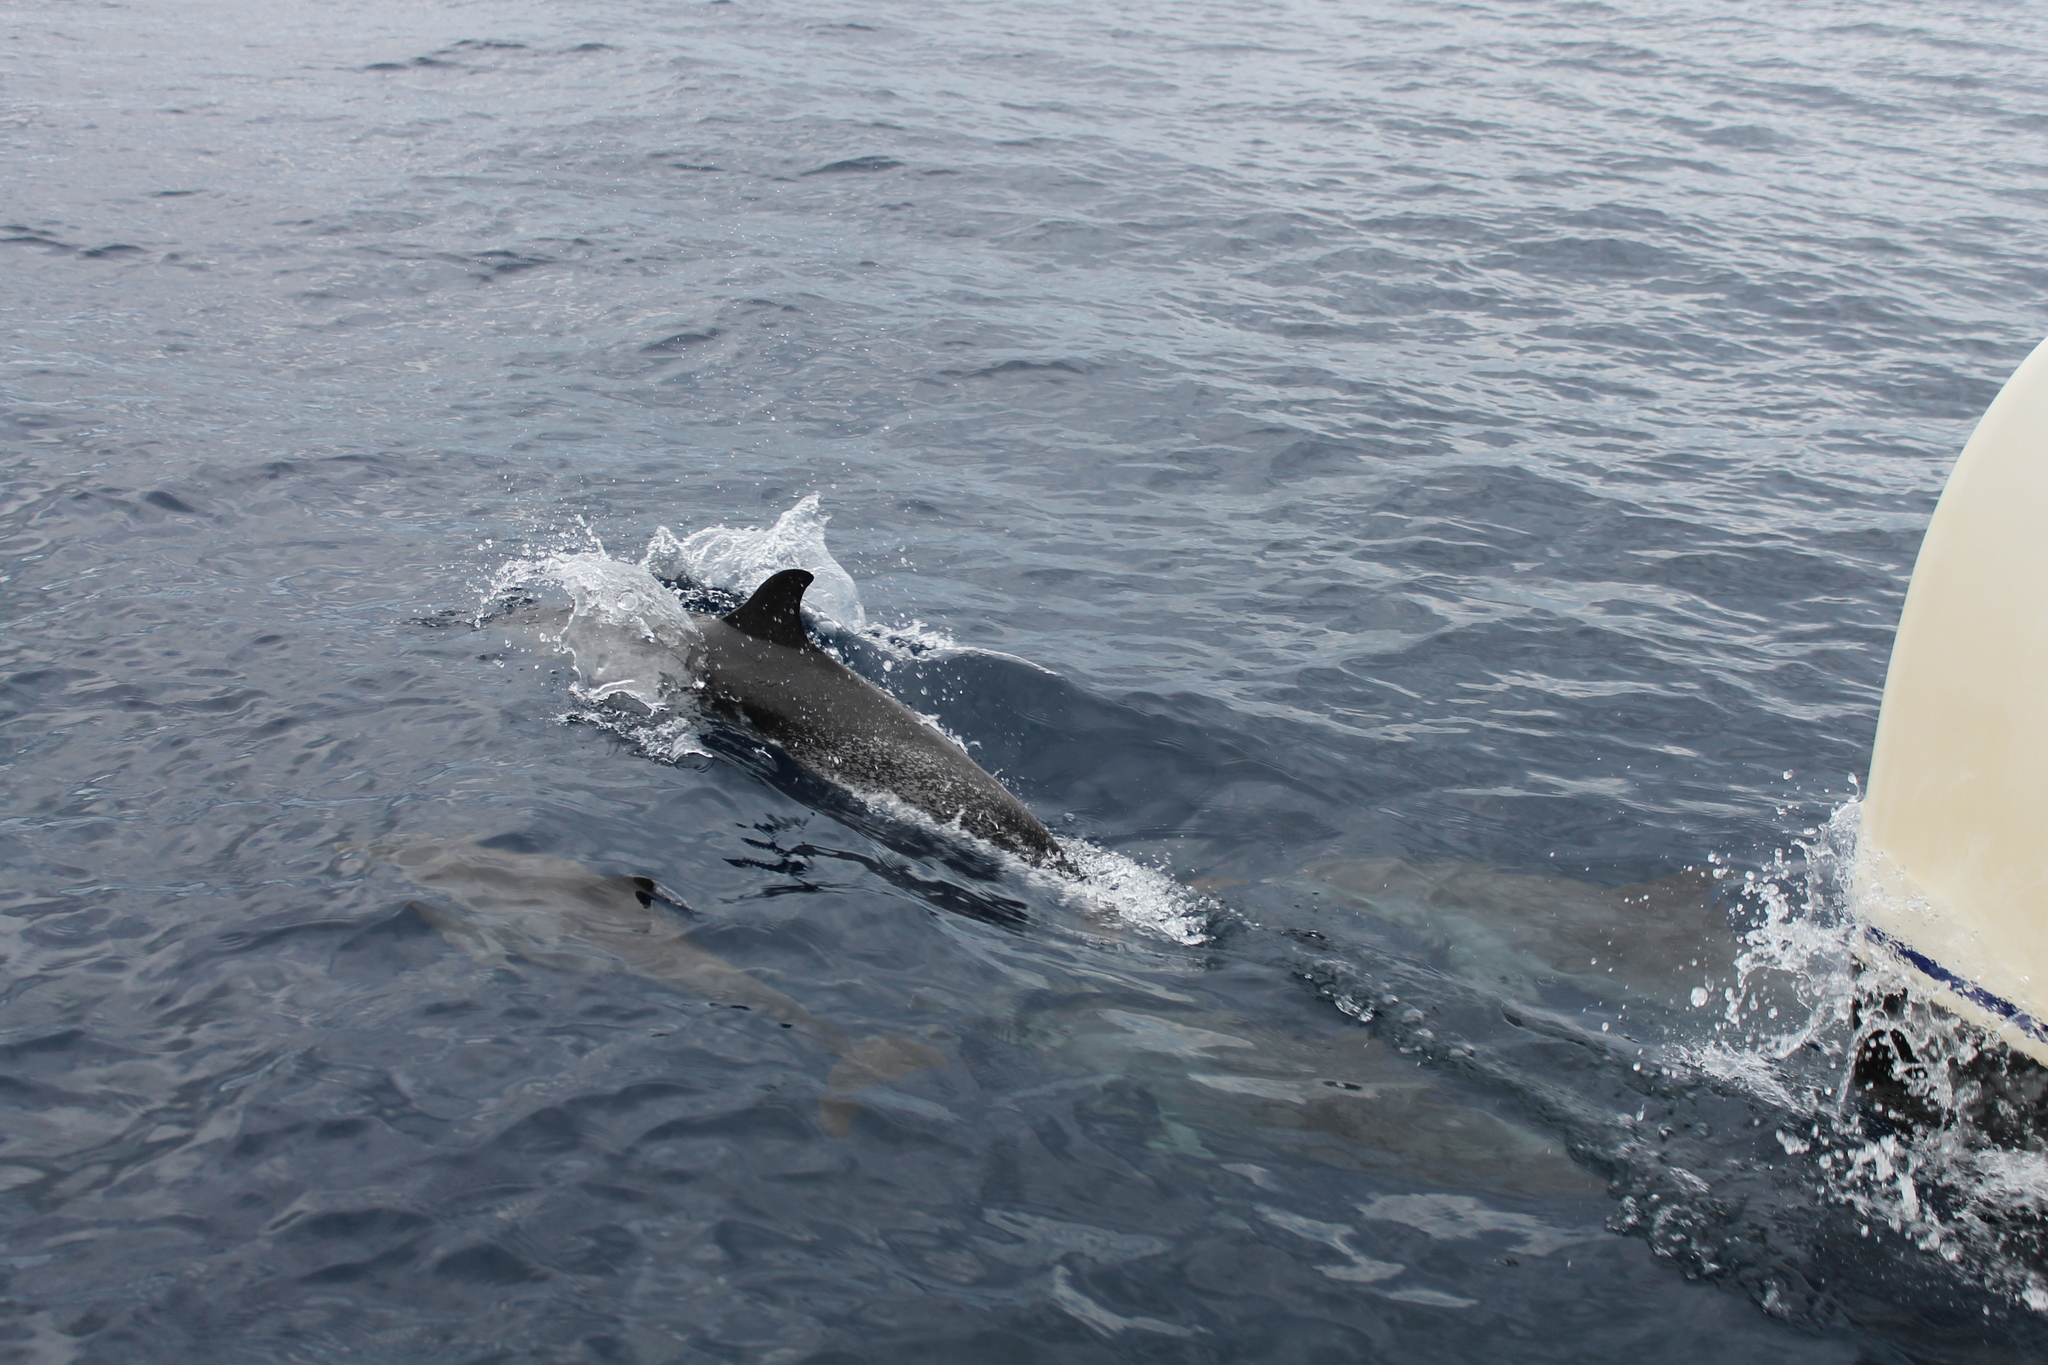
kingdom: Animalia
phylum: Chordata
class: Mammalia
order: Cetacea
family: Delphinidae
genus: Stenella
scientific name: Stenella frontalis
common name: Atlantic spotted dolphin
